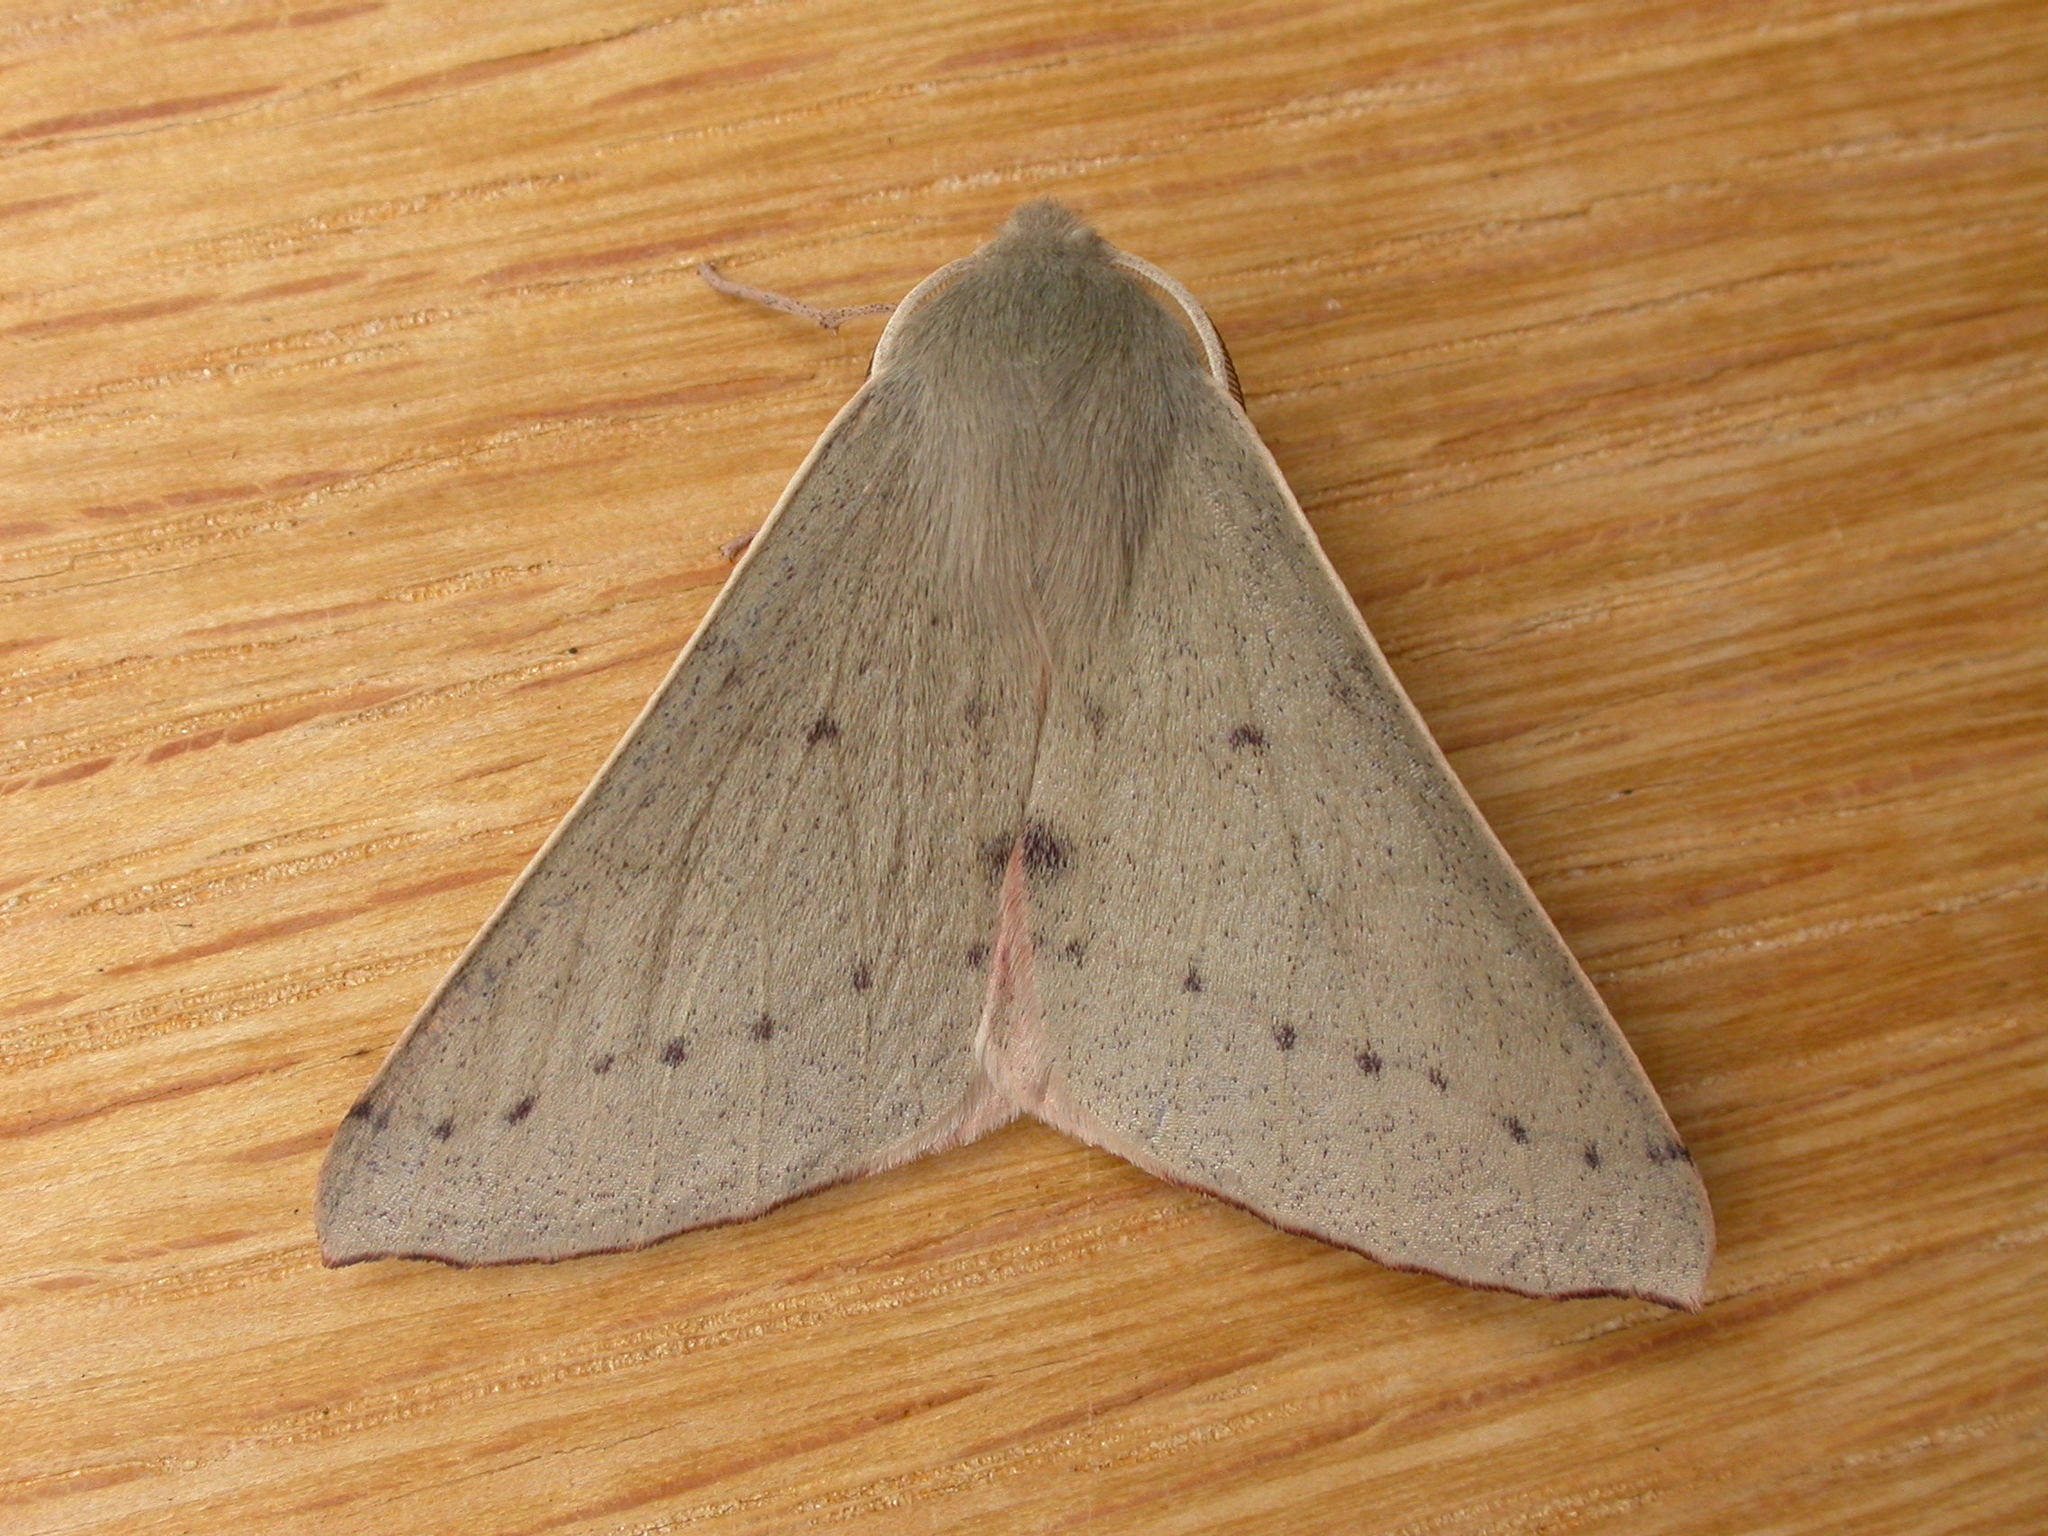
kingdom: Animalia
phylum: Arthropoda
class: Insecta
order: Lepidoptera
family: Geometridae
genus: Arhodia
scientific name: Arhodia lasiocamparia
